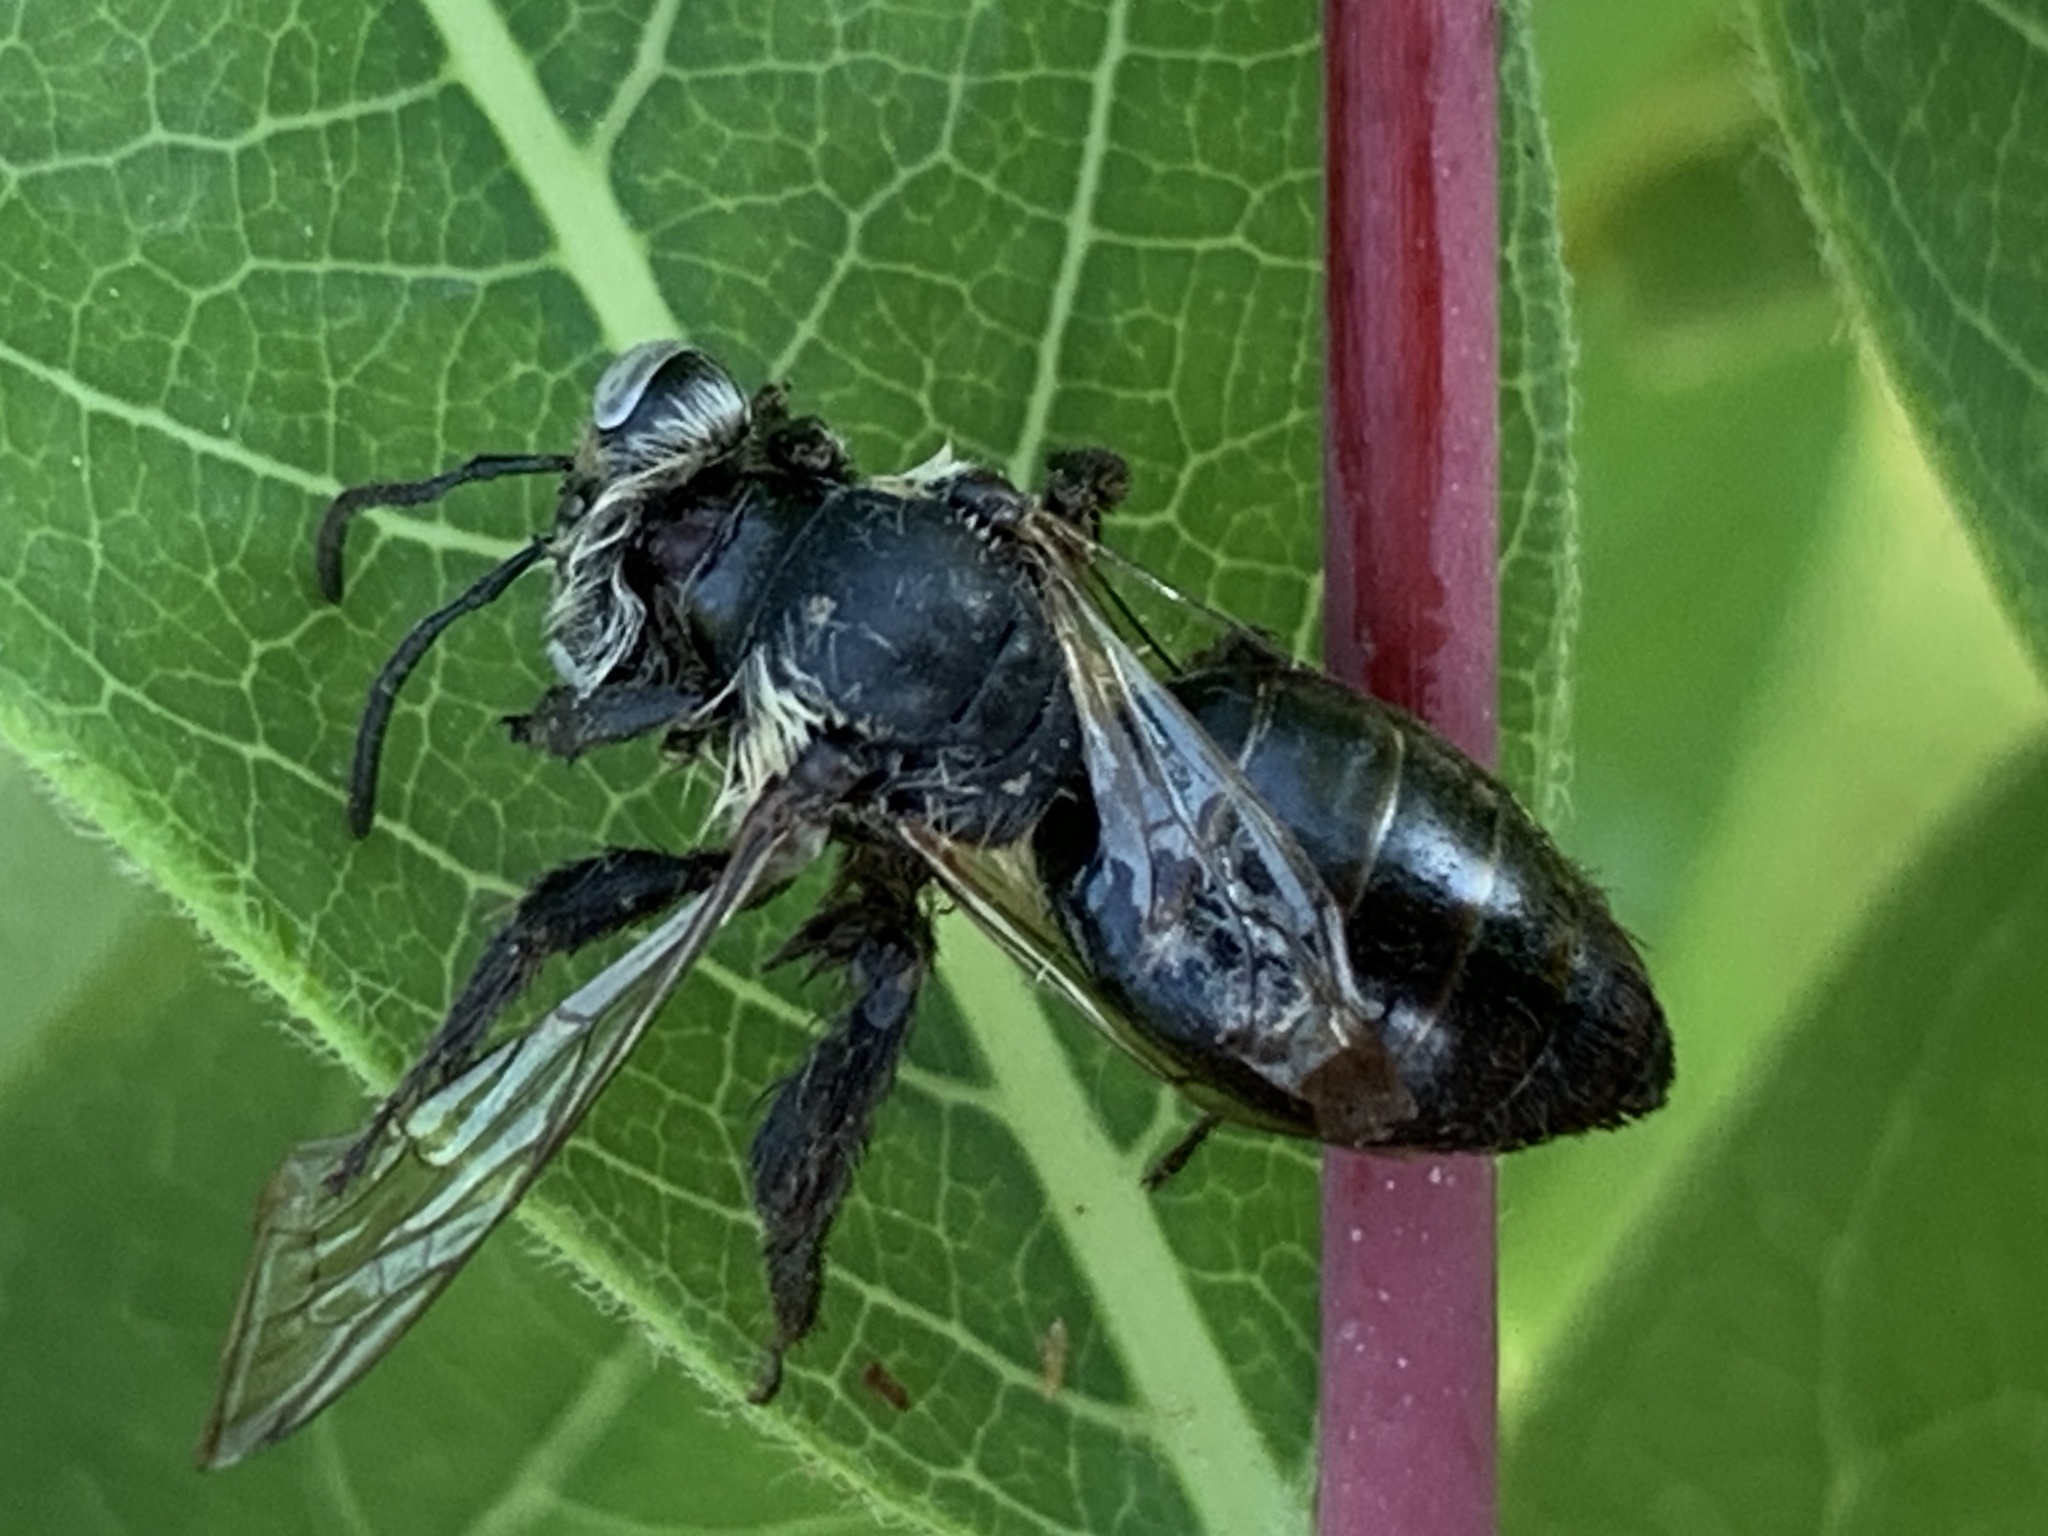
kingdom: Animalia
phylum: Arthropoda
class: Insecta
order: Hymenoptera
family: Andrenidae
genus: Andrena
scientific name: Andrena
